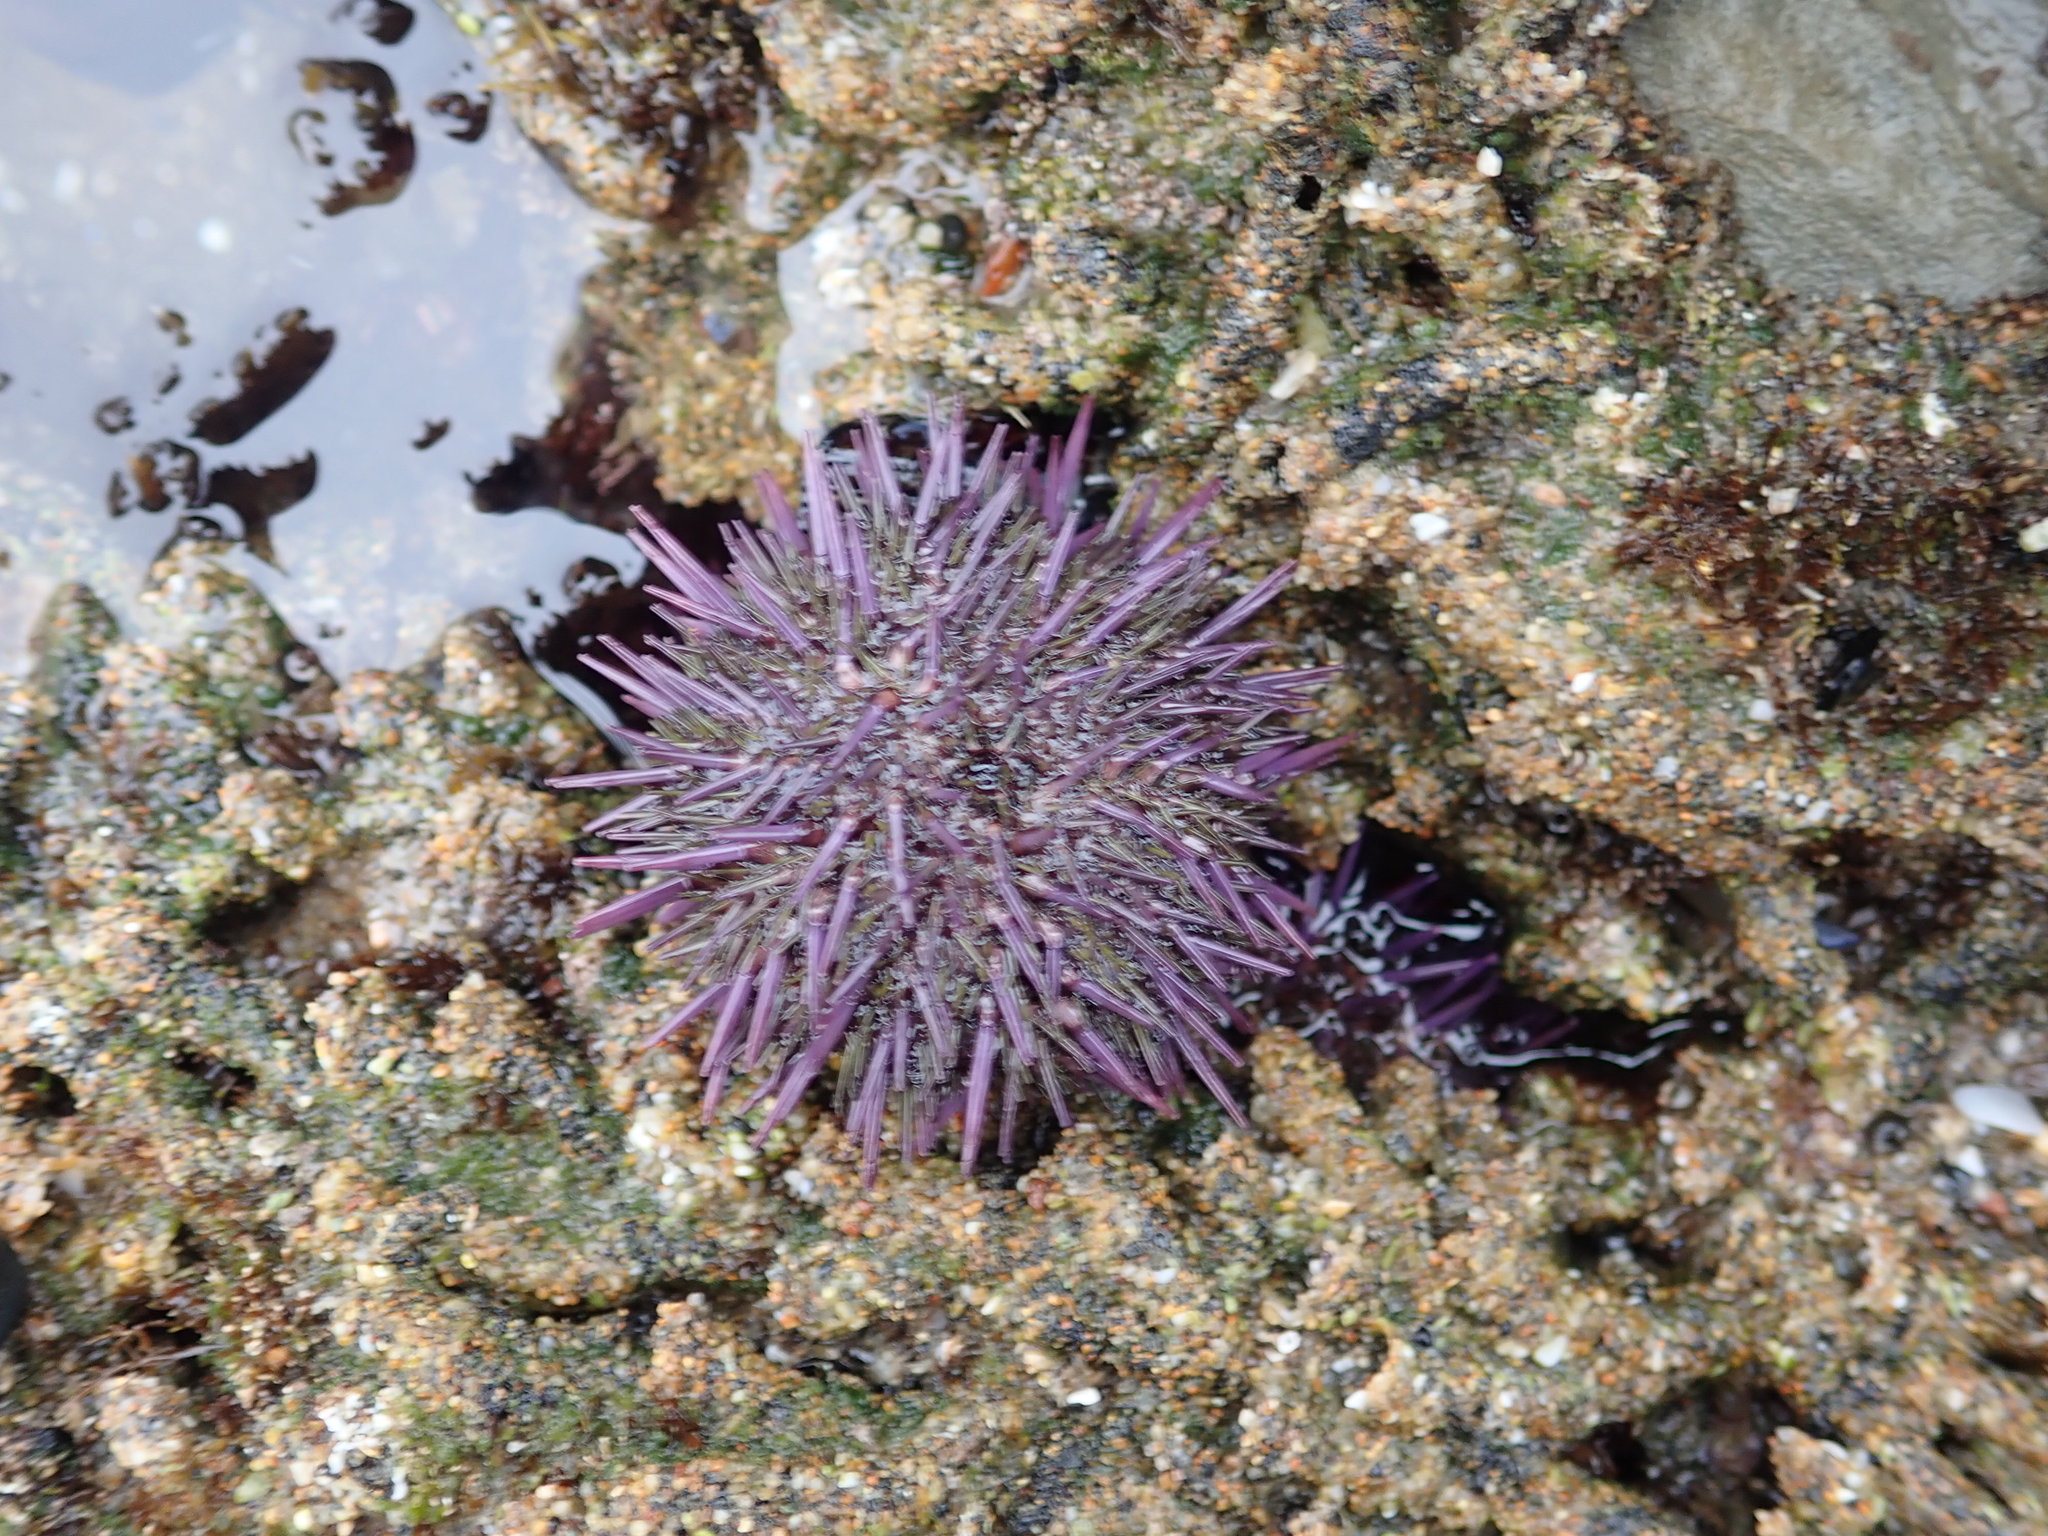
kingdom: Animalia
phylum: Echinodermata
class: Echinoidea
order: Camarodonta
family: Strongylocentrotidae
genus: Strongylocentrotus
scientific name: Strongylocentrotus purpuratus
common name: Purple sea urchin
